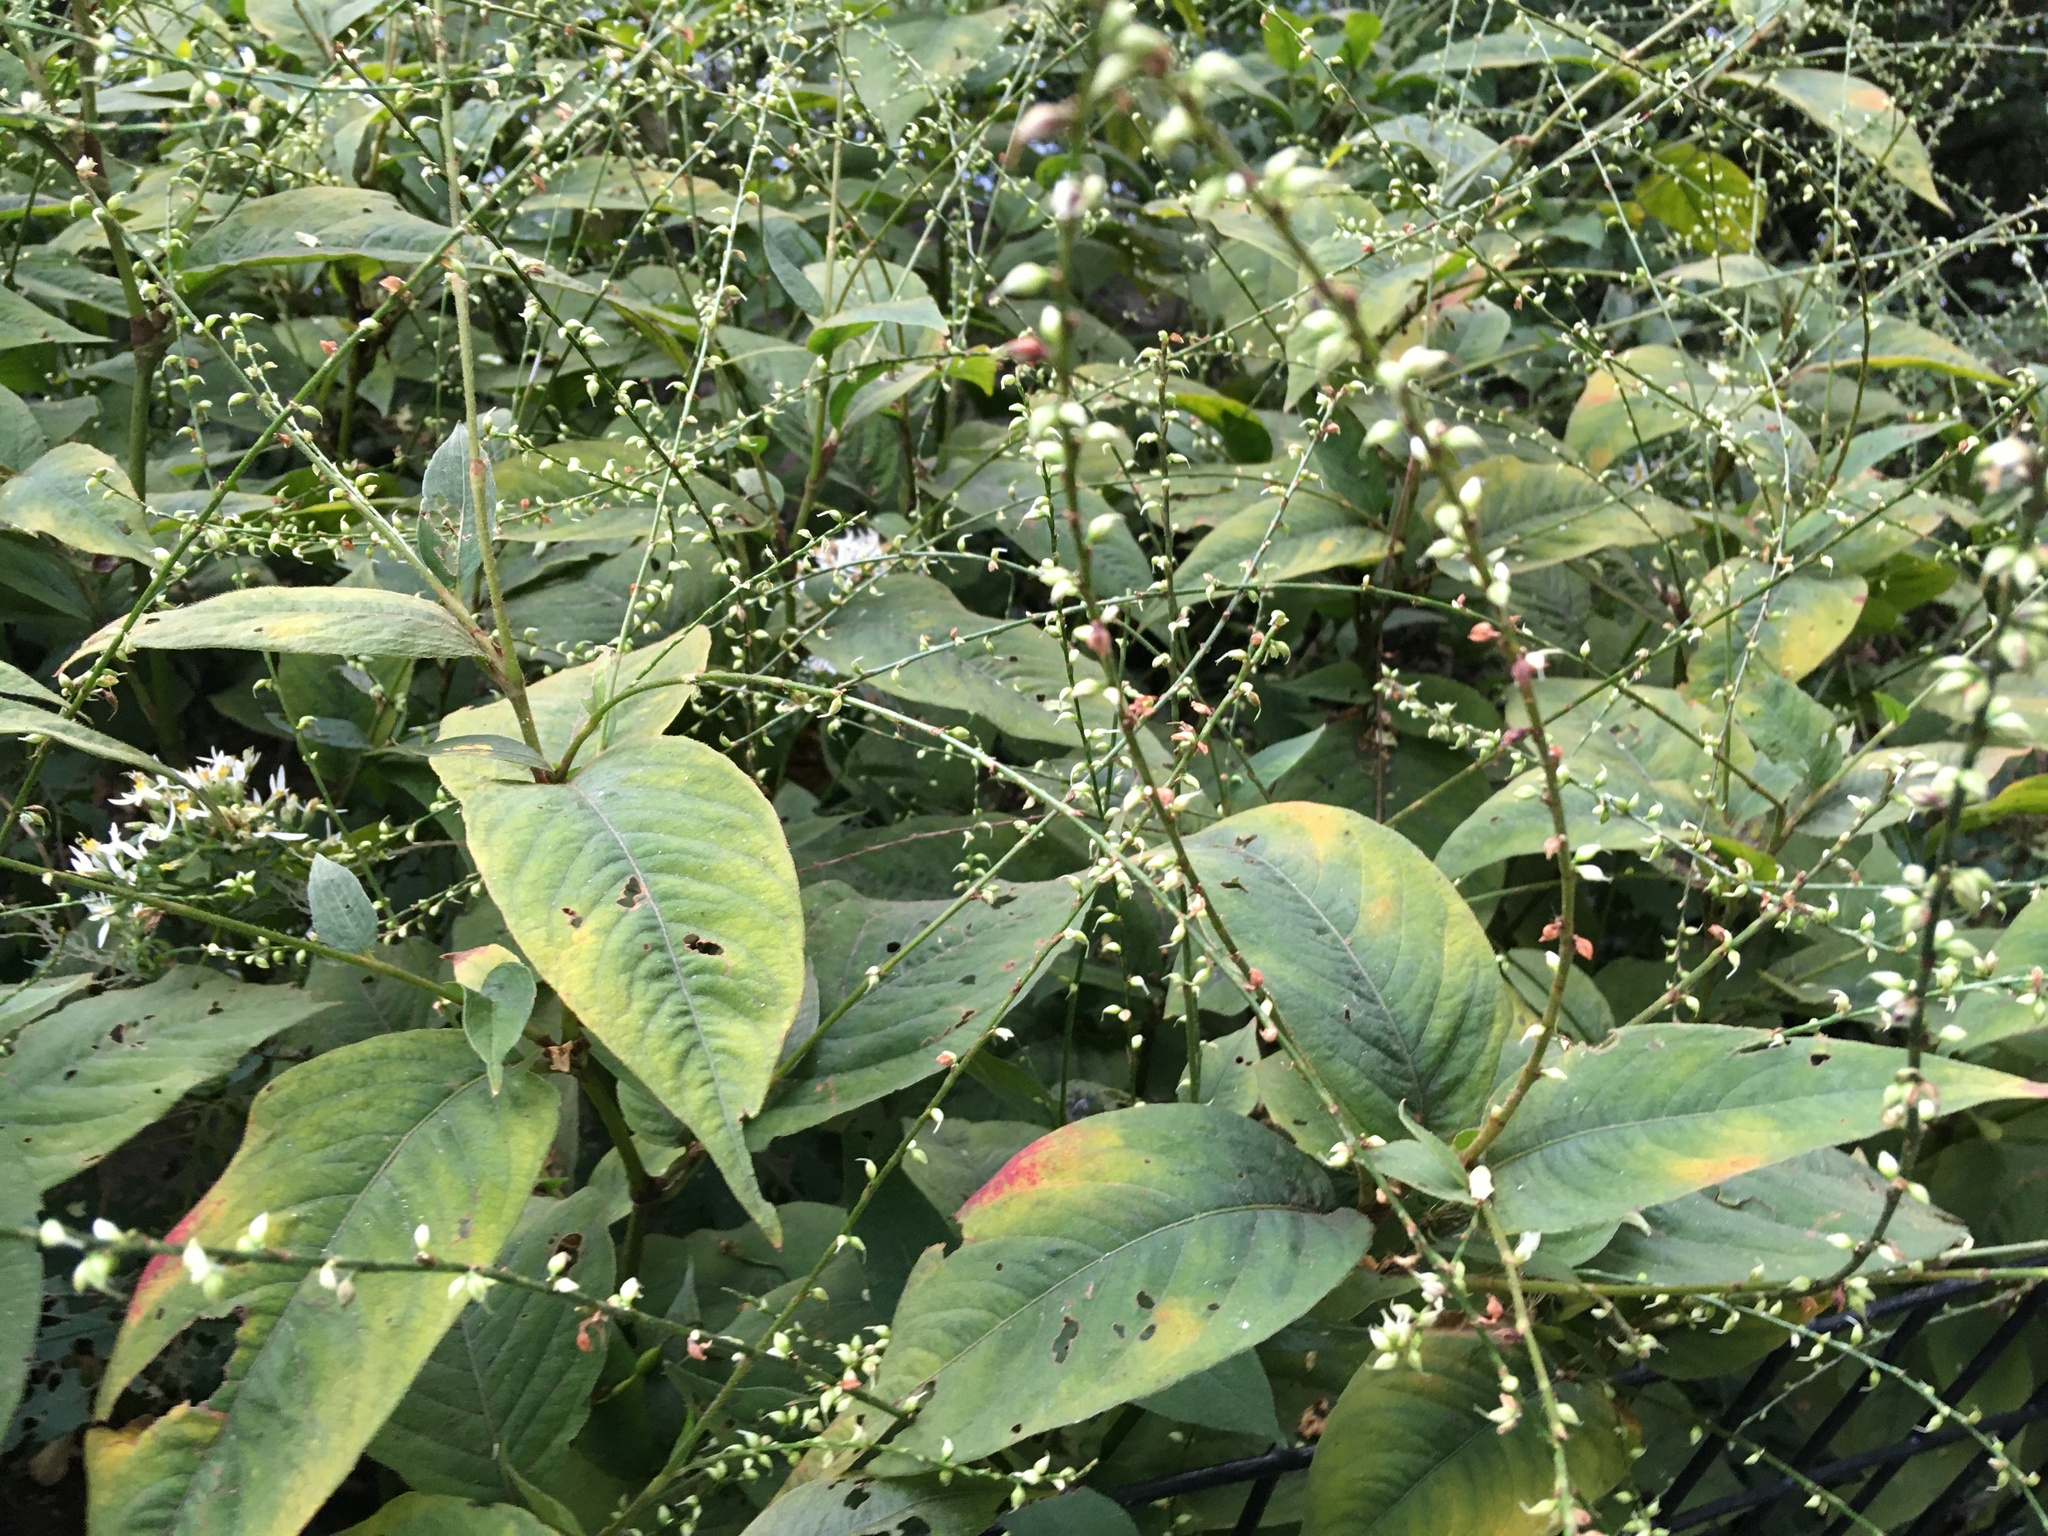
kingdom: Plantae
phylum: Tracheophyta
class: Magnoliopsida
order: Caryophyllales
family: Polygonaceae
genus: Persicaria
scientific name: Persicaria virginiana
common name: Jumpseed
